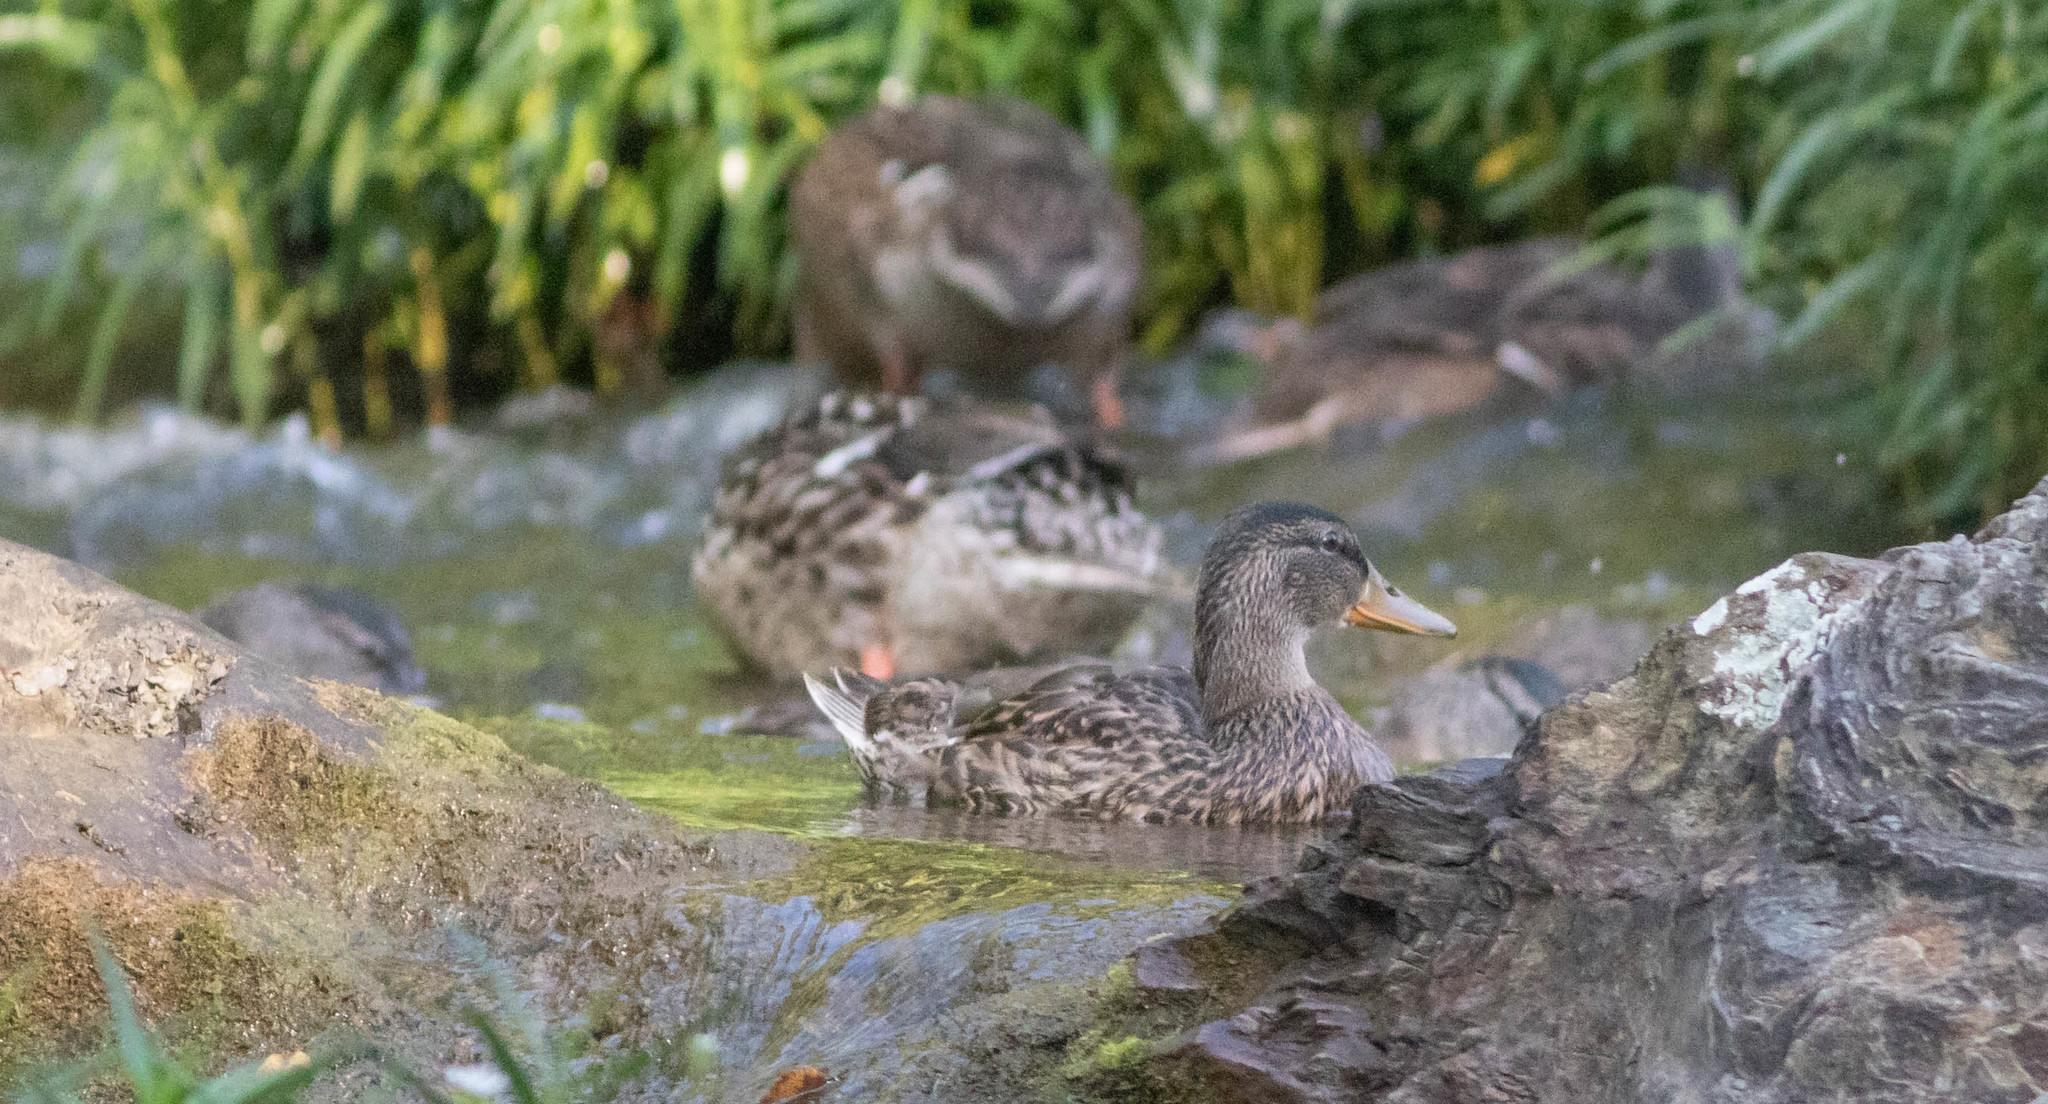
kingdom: Animalia
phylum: Chordata
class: Aves
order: Anseriformes
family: Anatidae
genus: Anas
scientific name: Anas platyrhynchos
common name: Mallard
